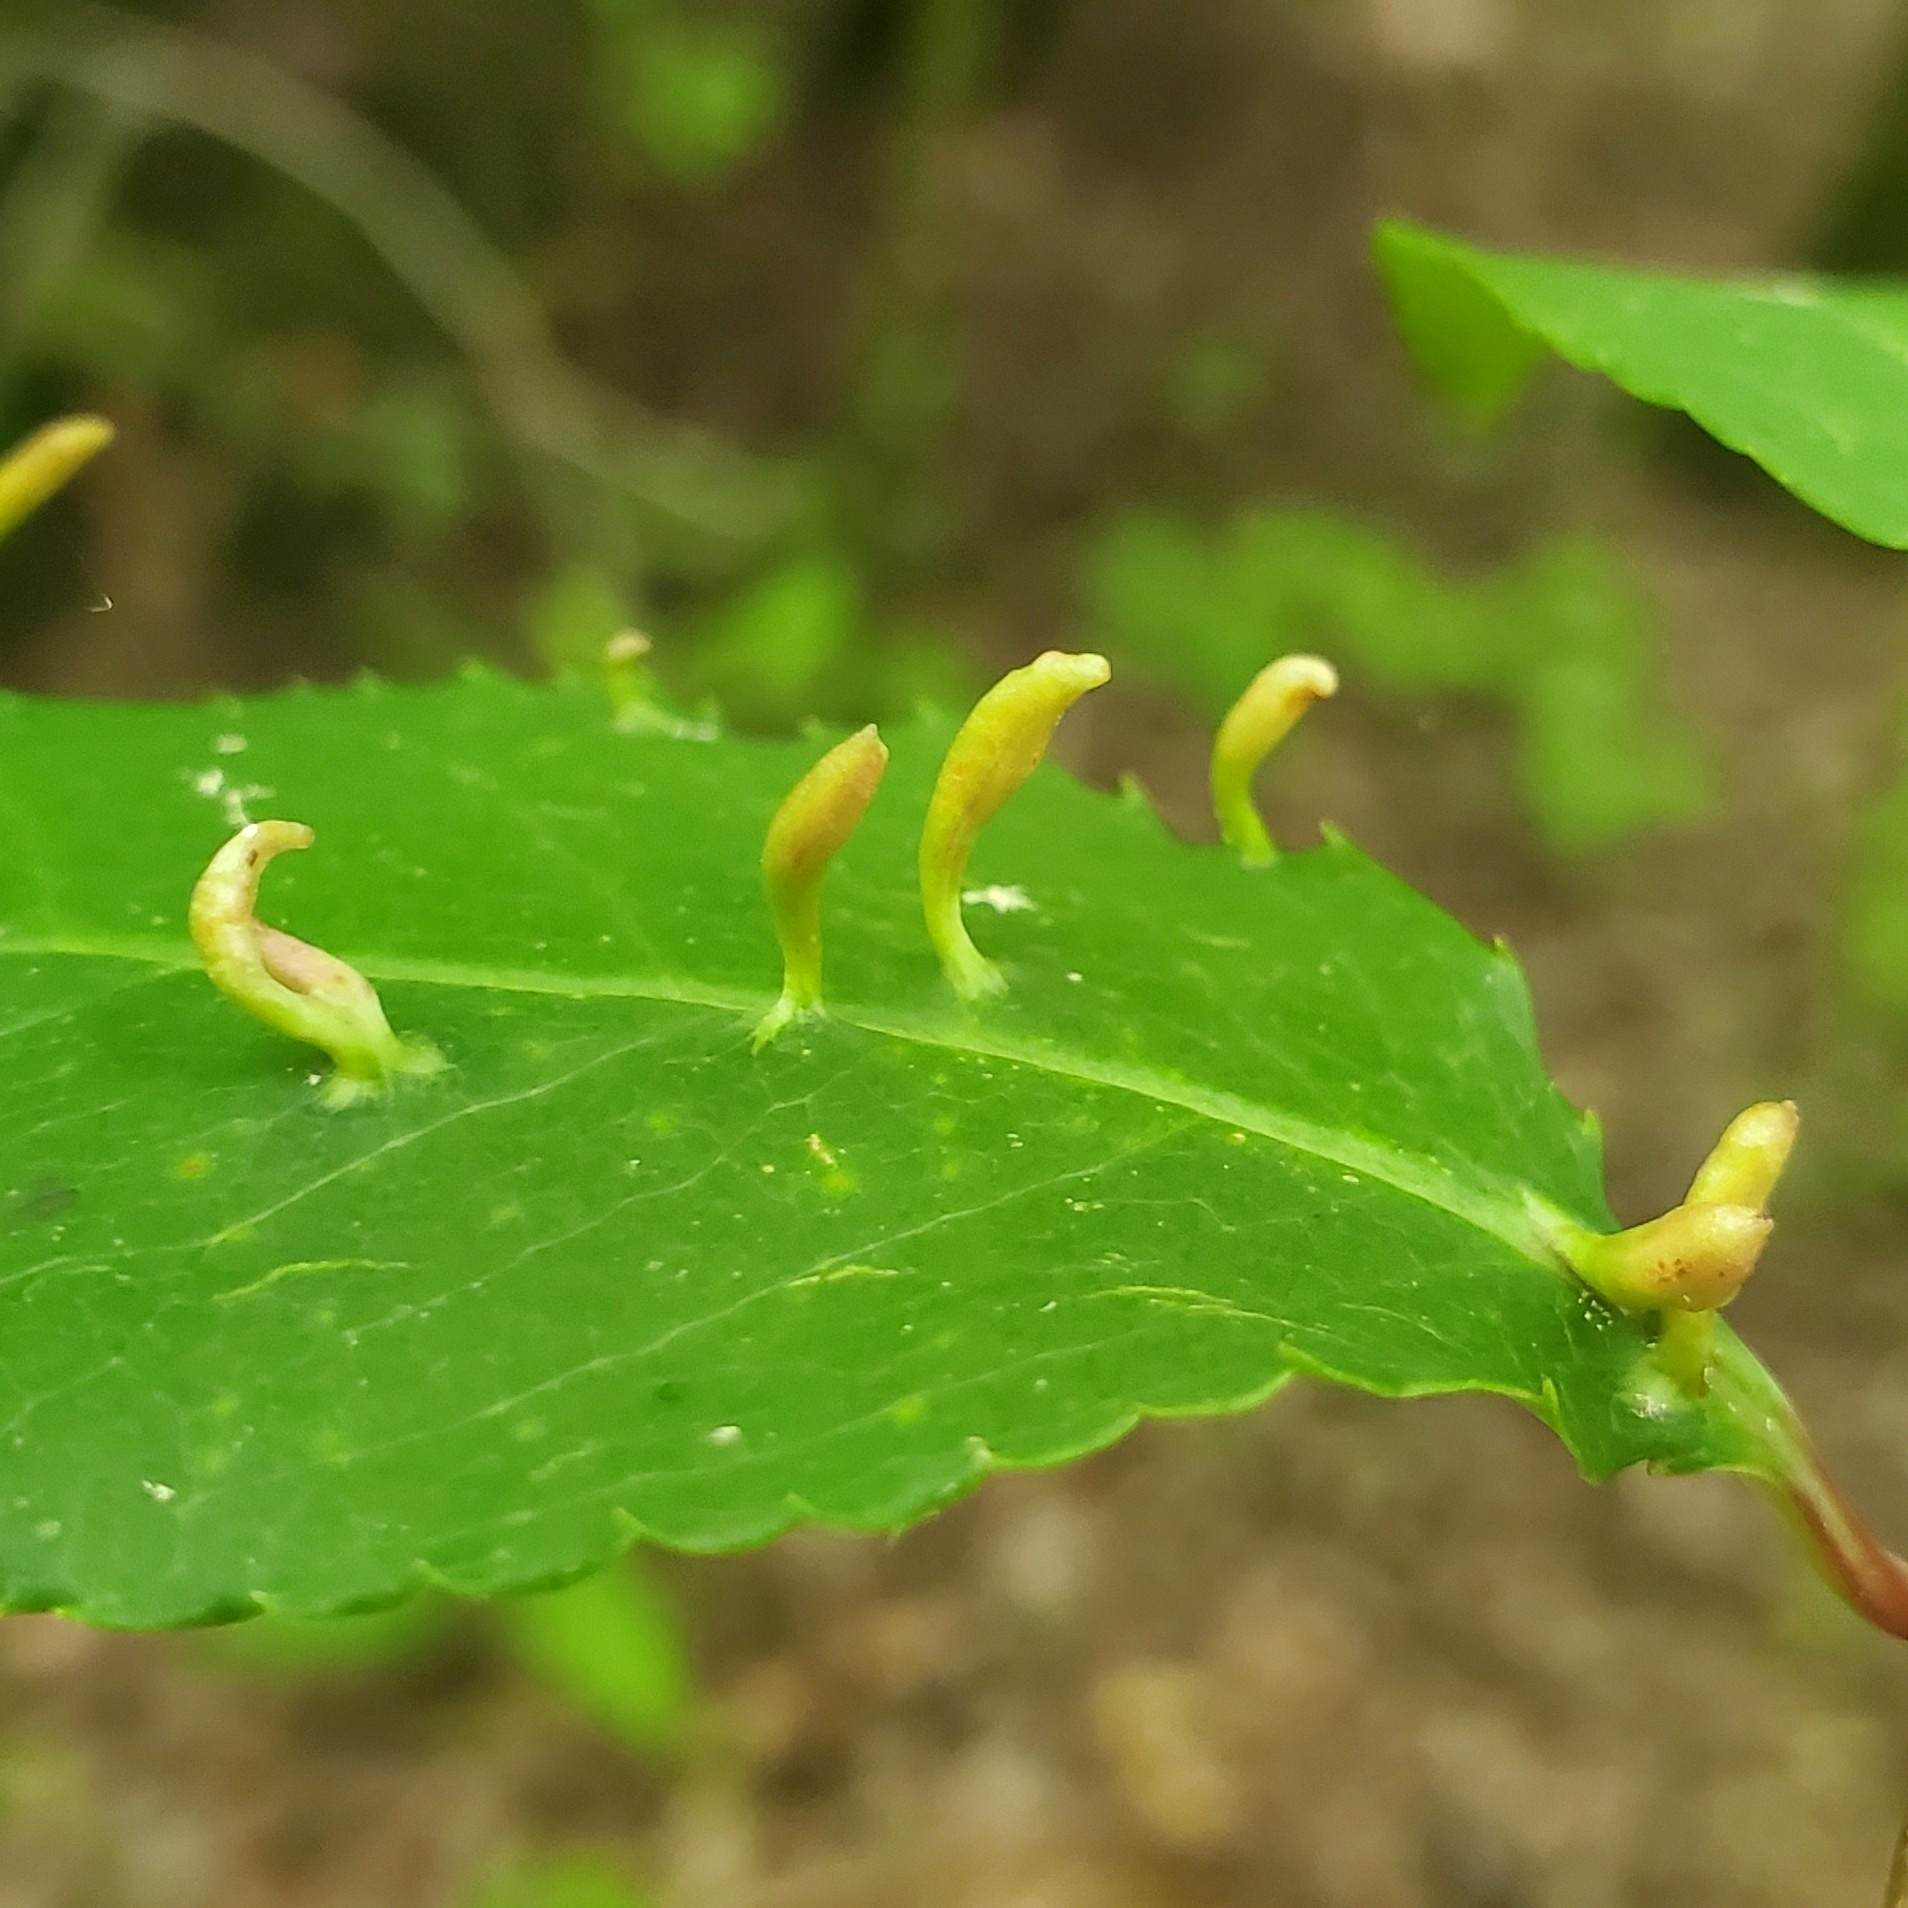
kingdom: Animalia
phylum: Arthropoda
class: Arachnida
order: Trombidiformes
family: Eriophyidae
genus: Eriophyes
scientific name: Eriophyes
